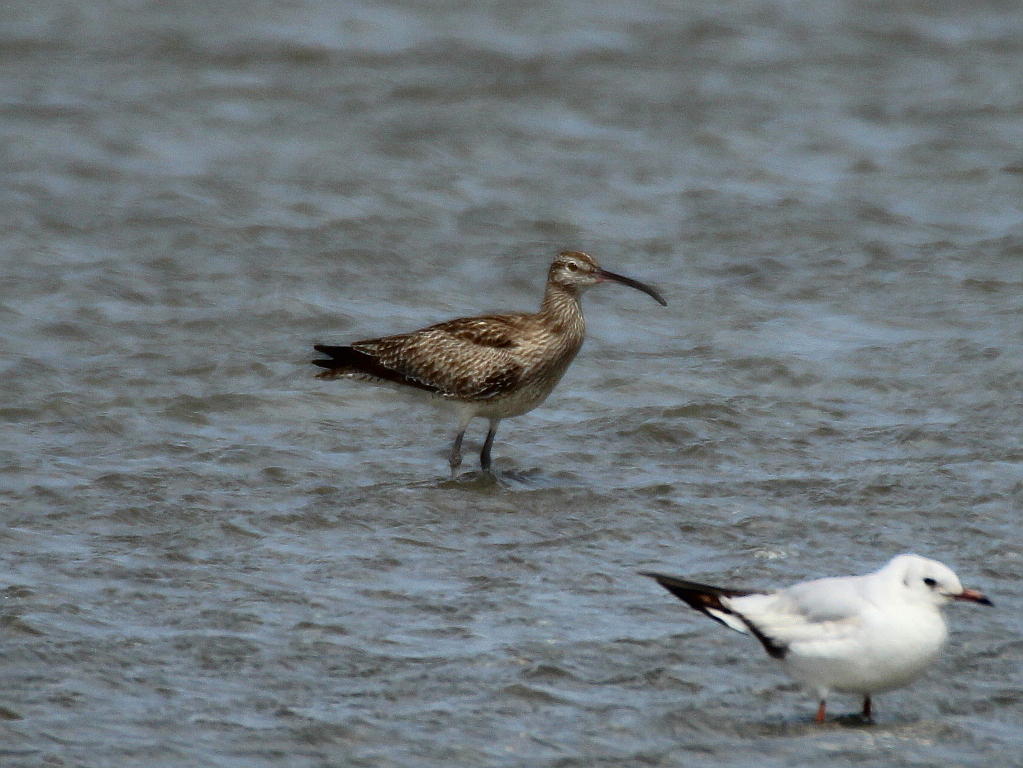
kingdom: Animalia
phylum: Chordata
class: Aves
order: Charadriiformes
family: Scolopacidae
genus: Numenius
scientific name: Numenius phaeopus
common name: Whimbrel
